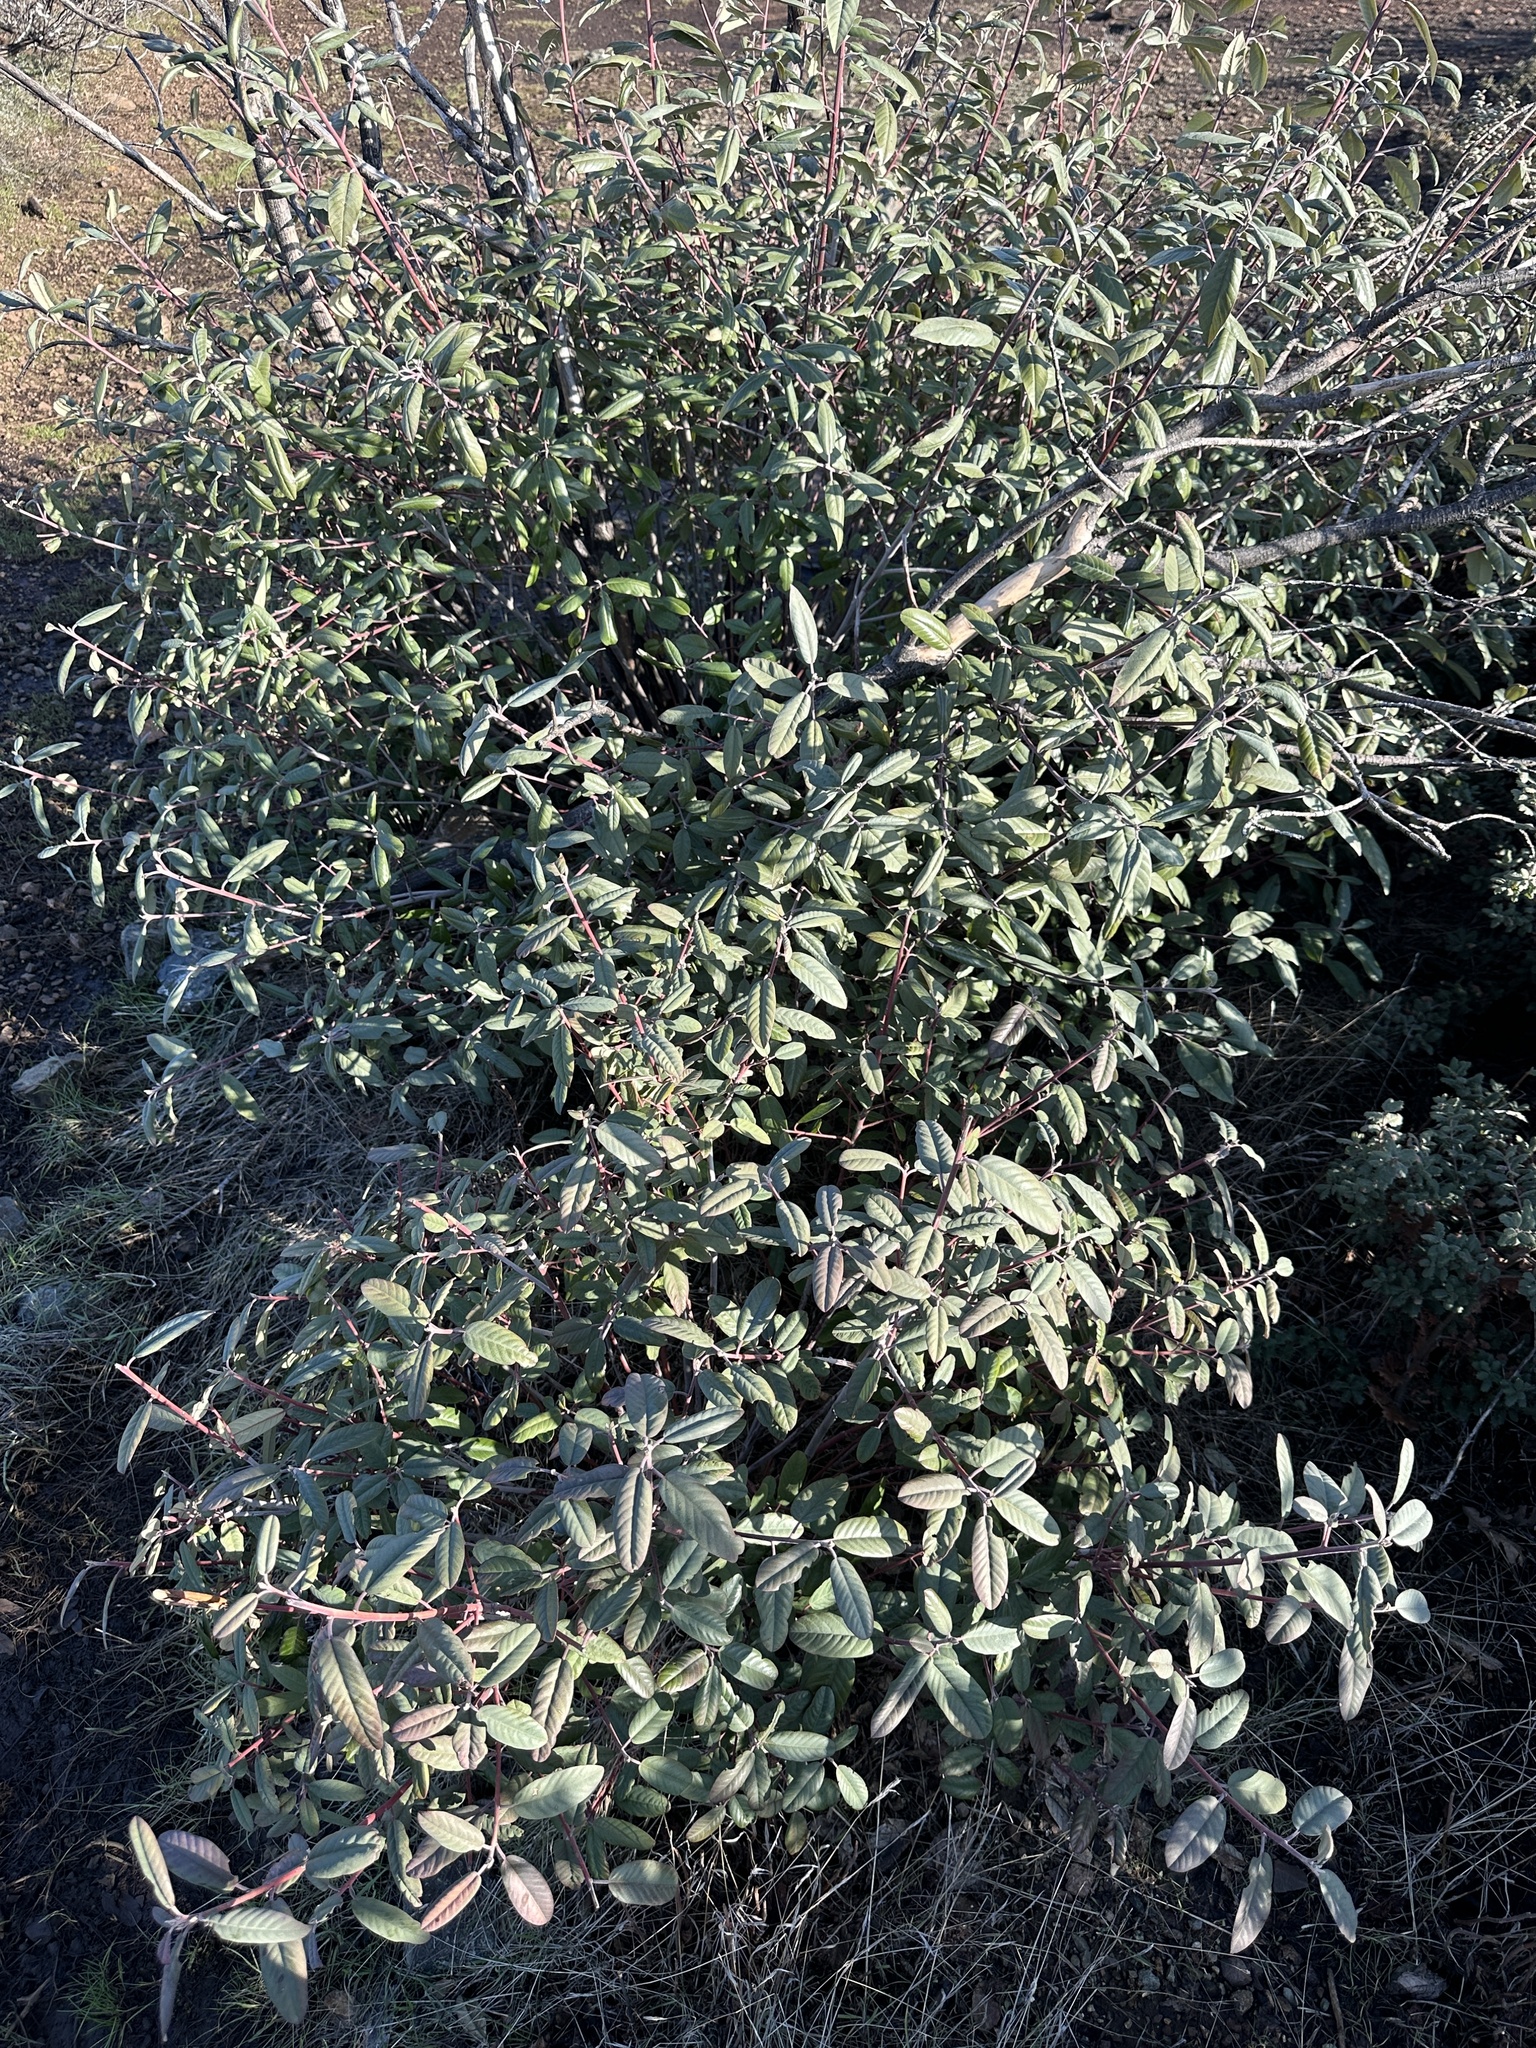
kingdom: Plantae
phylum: Tracheophyta
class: Magnoliopsida
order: Rosales
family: Rhamnaceae
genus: Frangula
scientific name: Frangula californica
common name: California buckthorn
